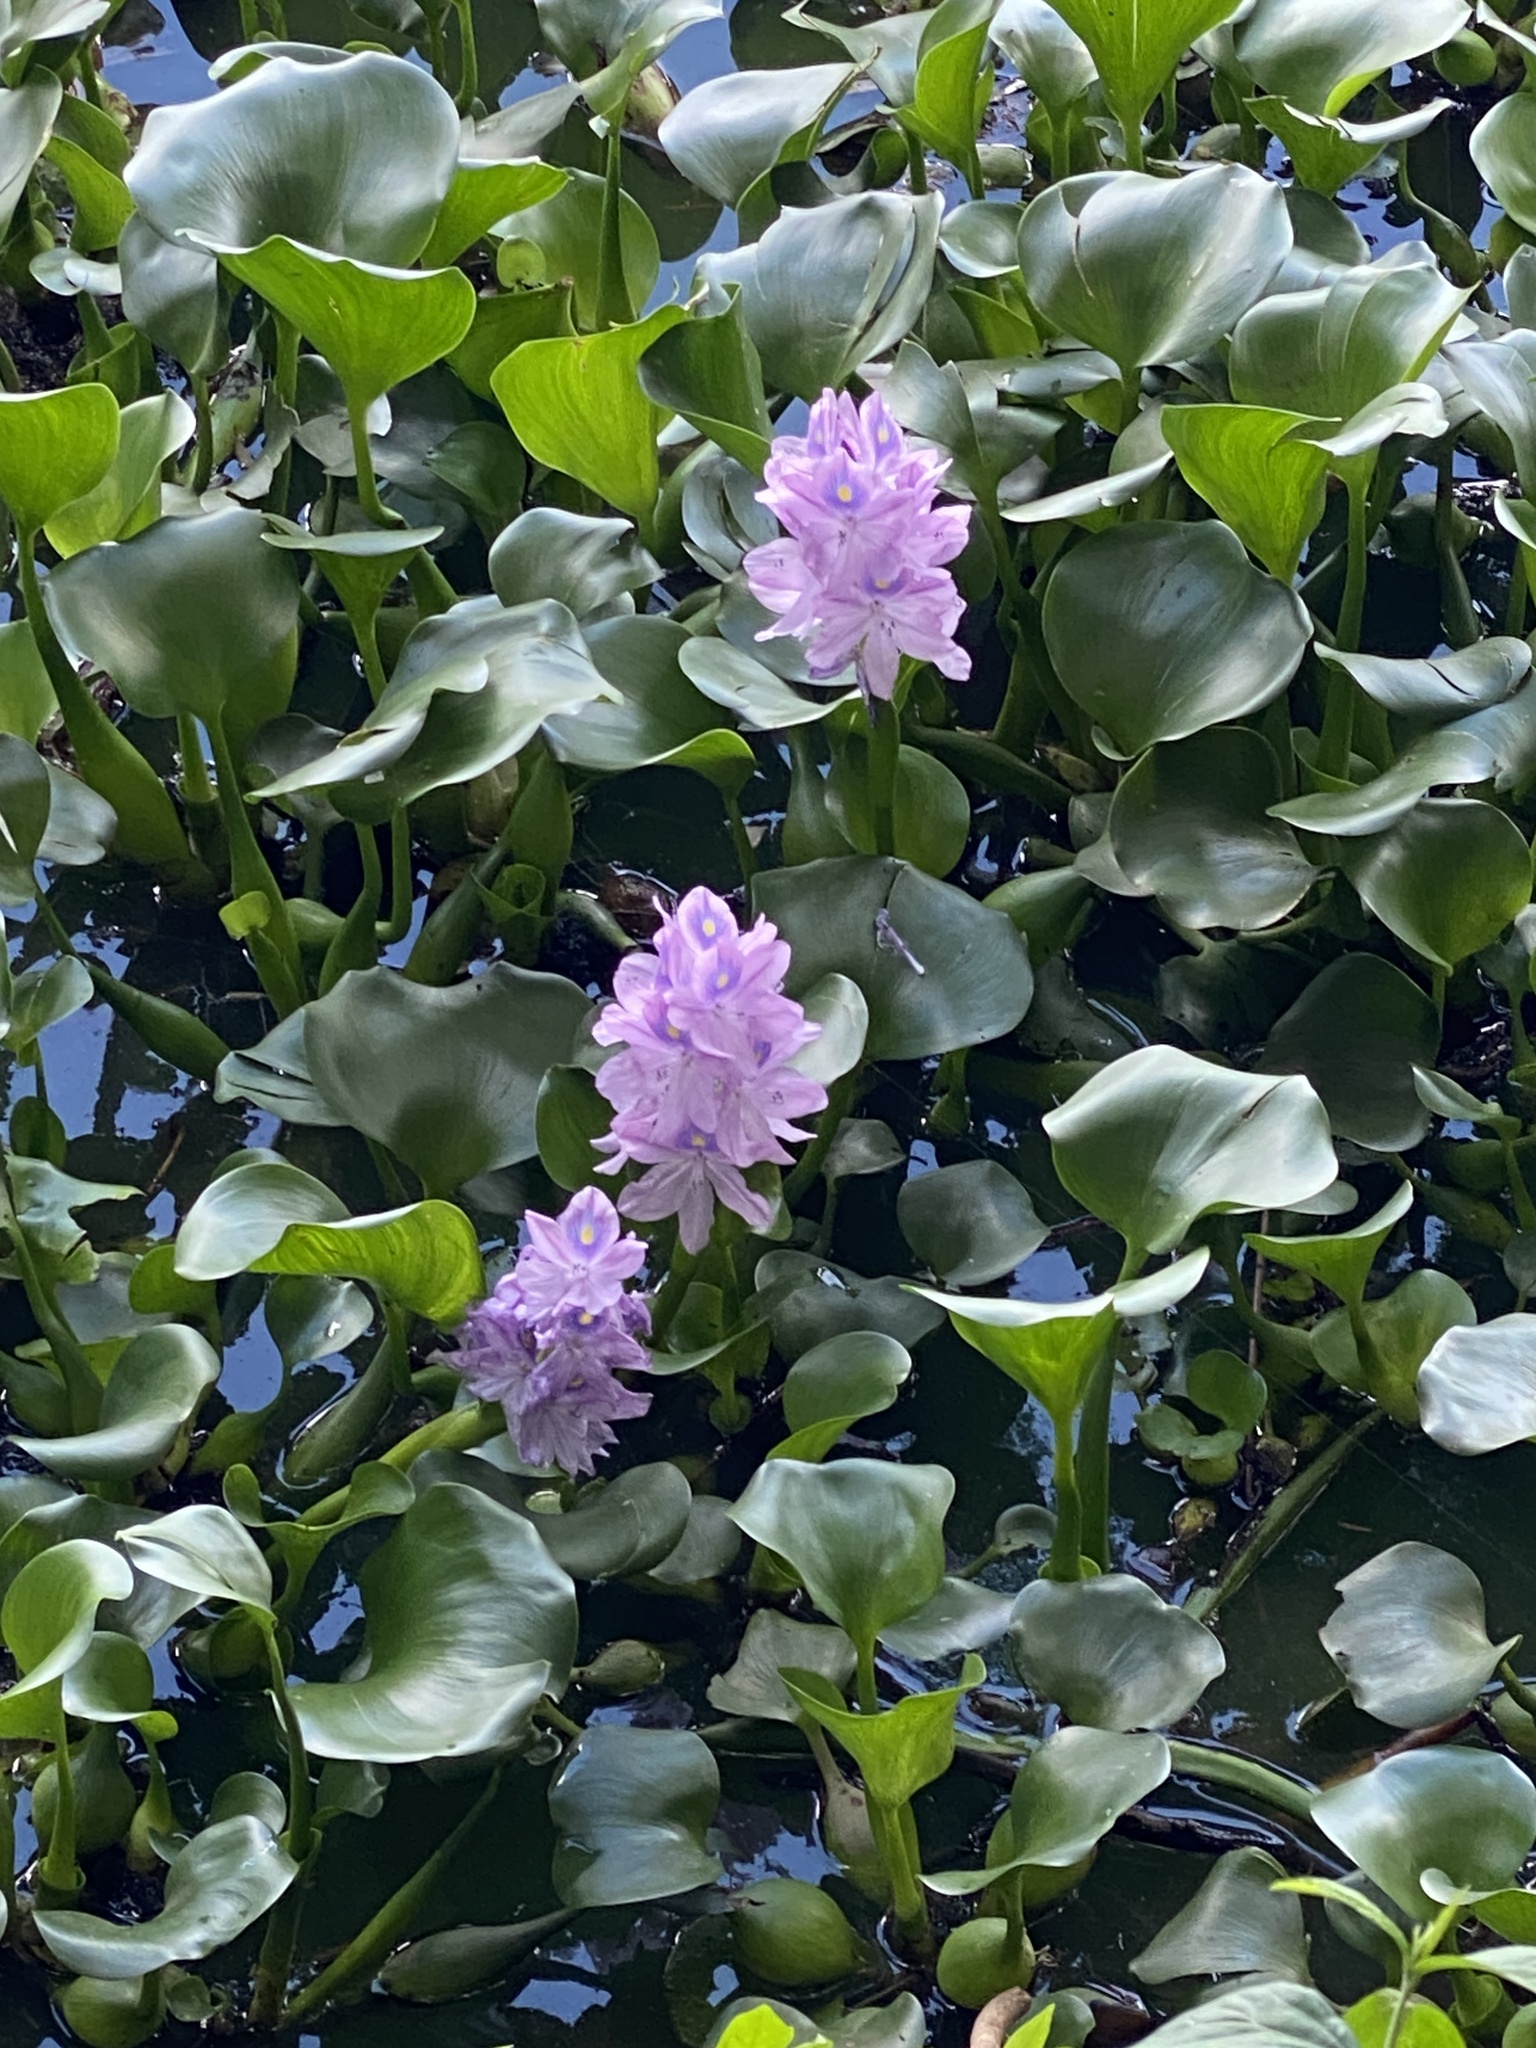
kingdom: Plantae
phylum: Tracheophyta
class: Liliopsida
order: Commelinales
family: Pontederiaceae
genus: Pontederia
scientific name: Pontederia crassipes
